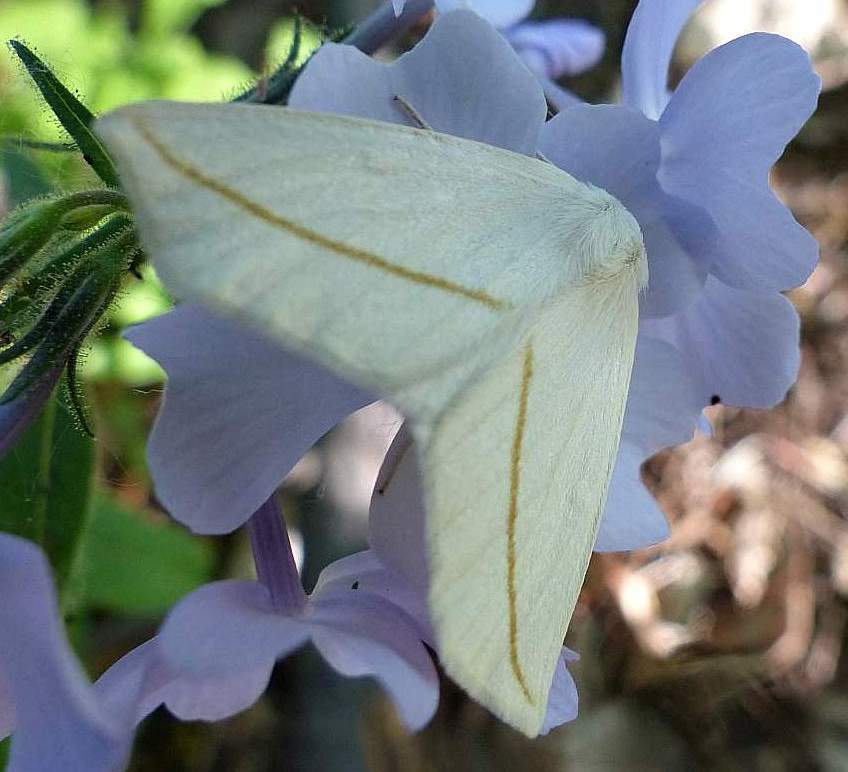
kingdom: Animalia
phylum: Arthropoda
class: Insecta
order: Lepidoptera
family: Geometridae
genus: Tetracis
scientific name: Tetracis cachexiata
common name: White slant-line
